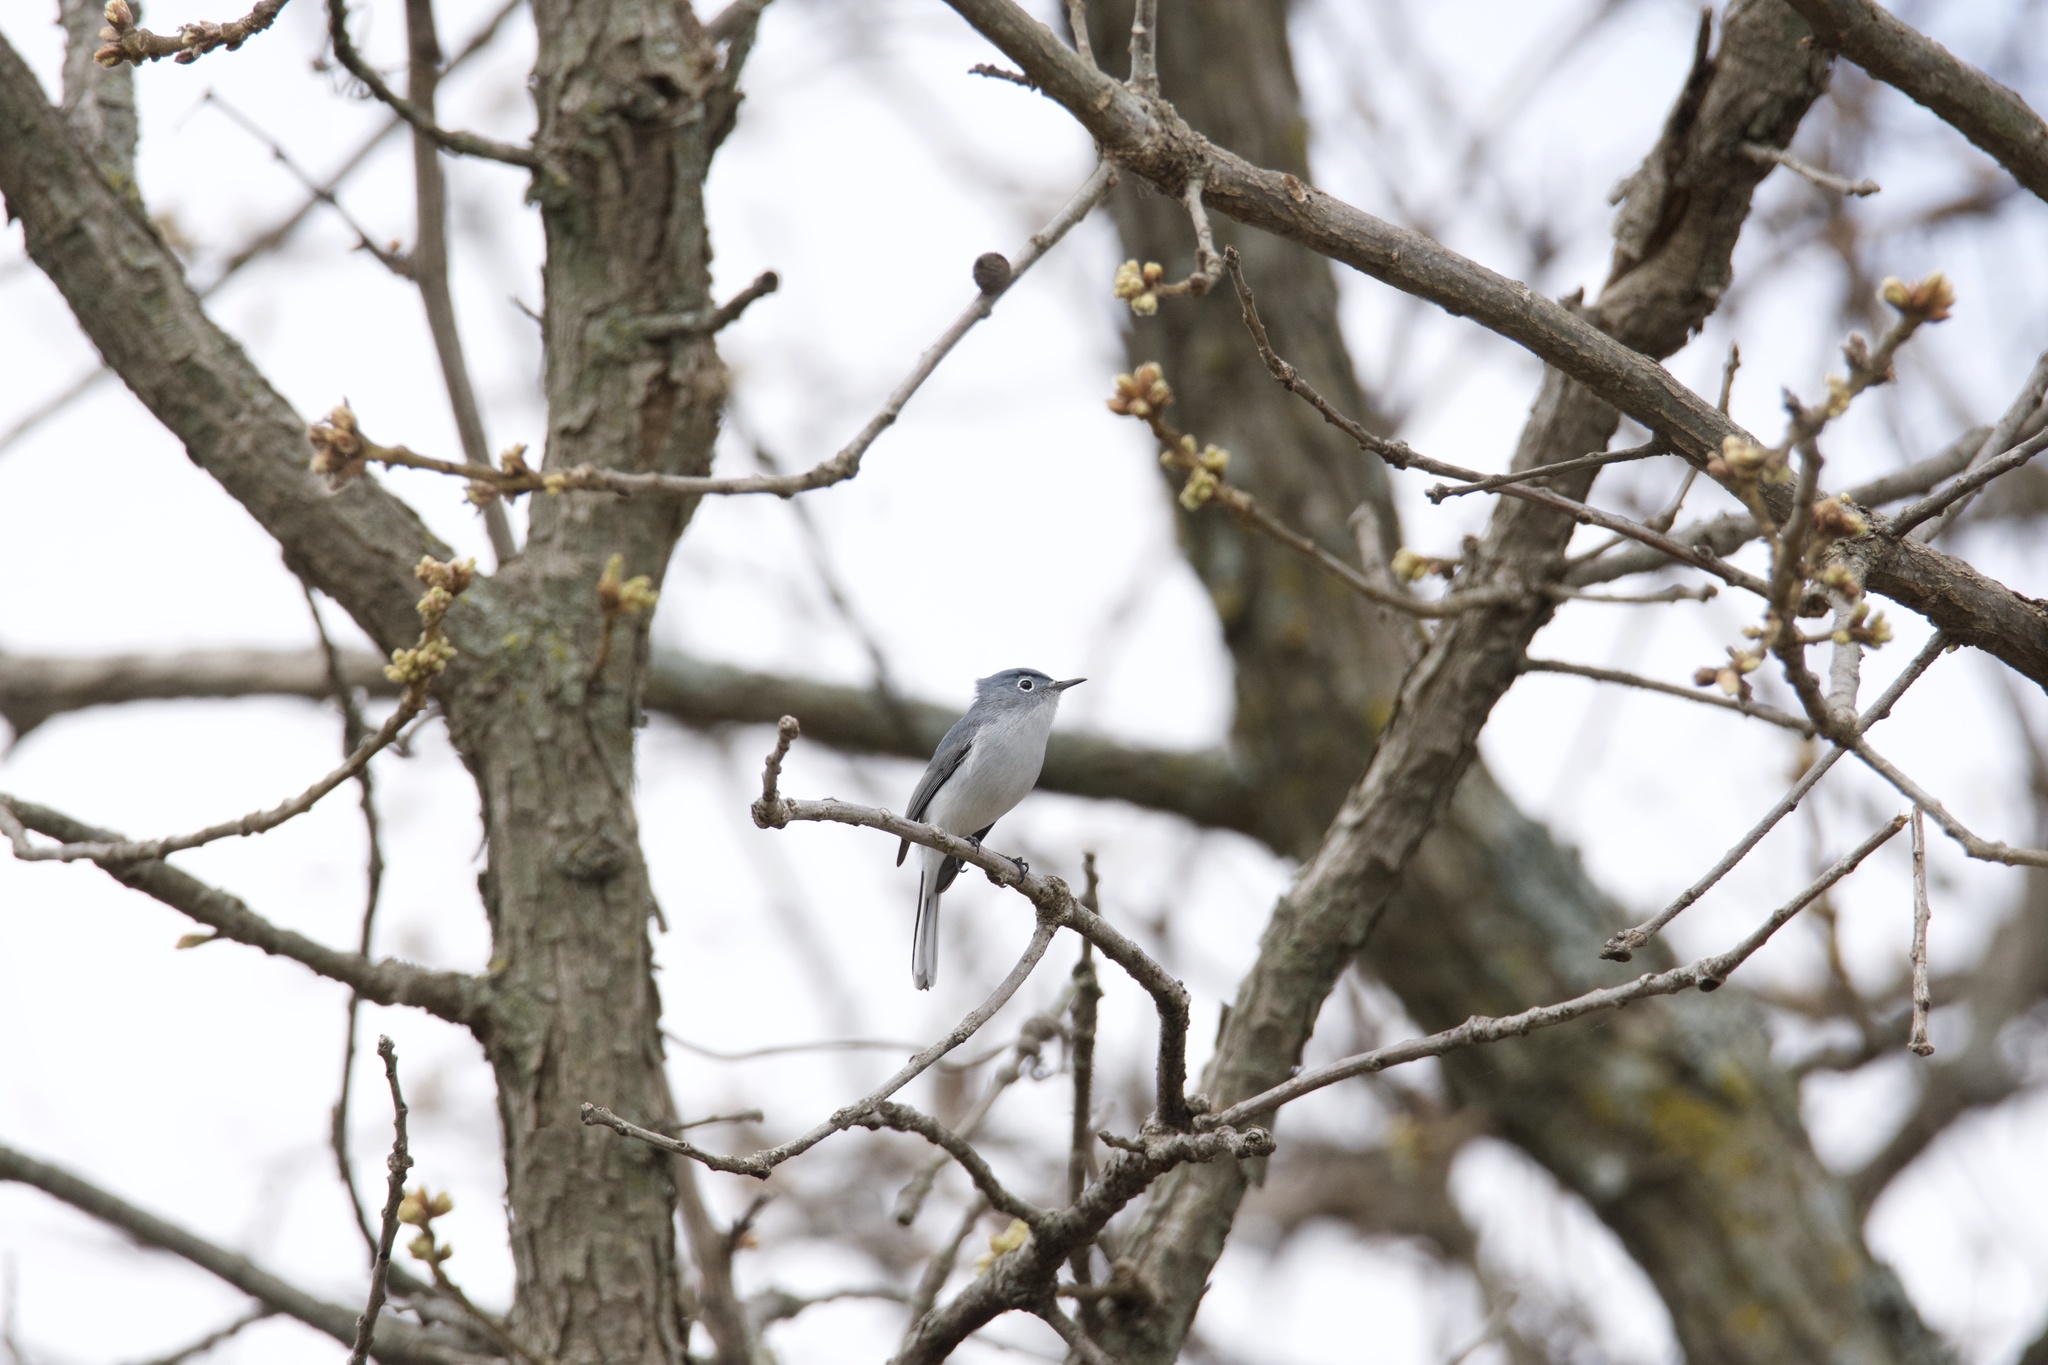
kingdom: Animalia
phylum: Chordata
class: Aves
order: Passeriformes
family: Polioptilidae
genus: Polioptila
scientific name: Polioptila caerulea
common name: Blue-gray gnatcatcher
